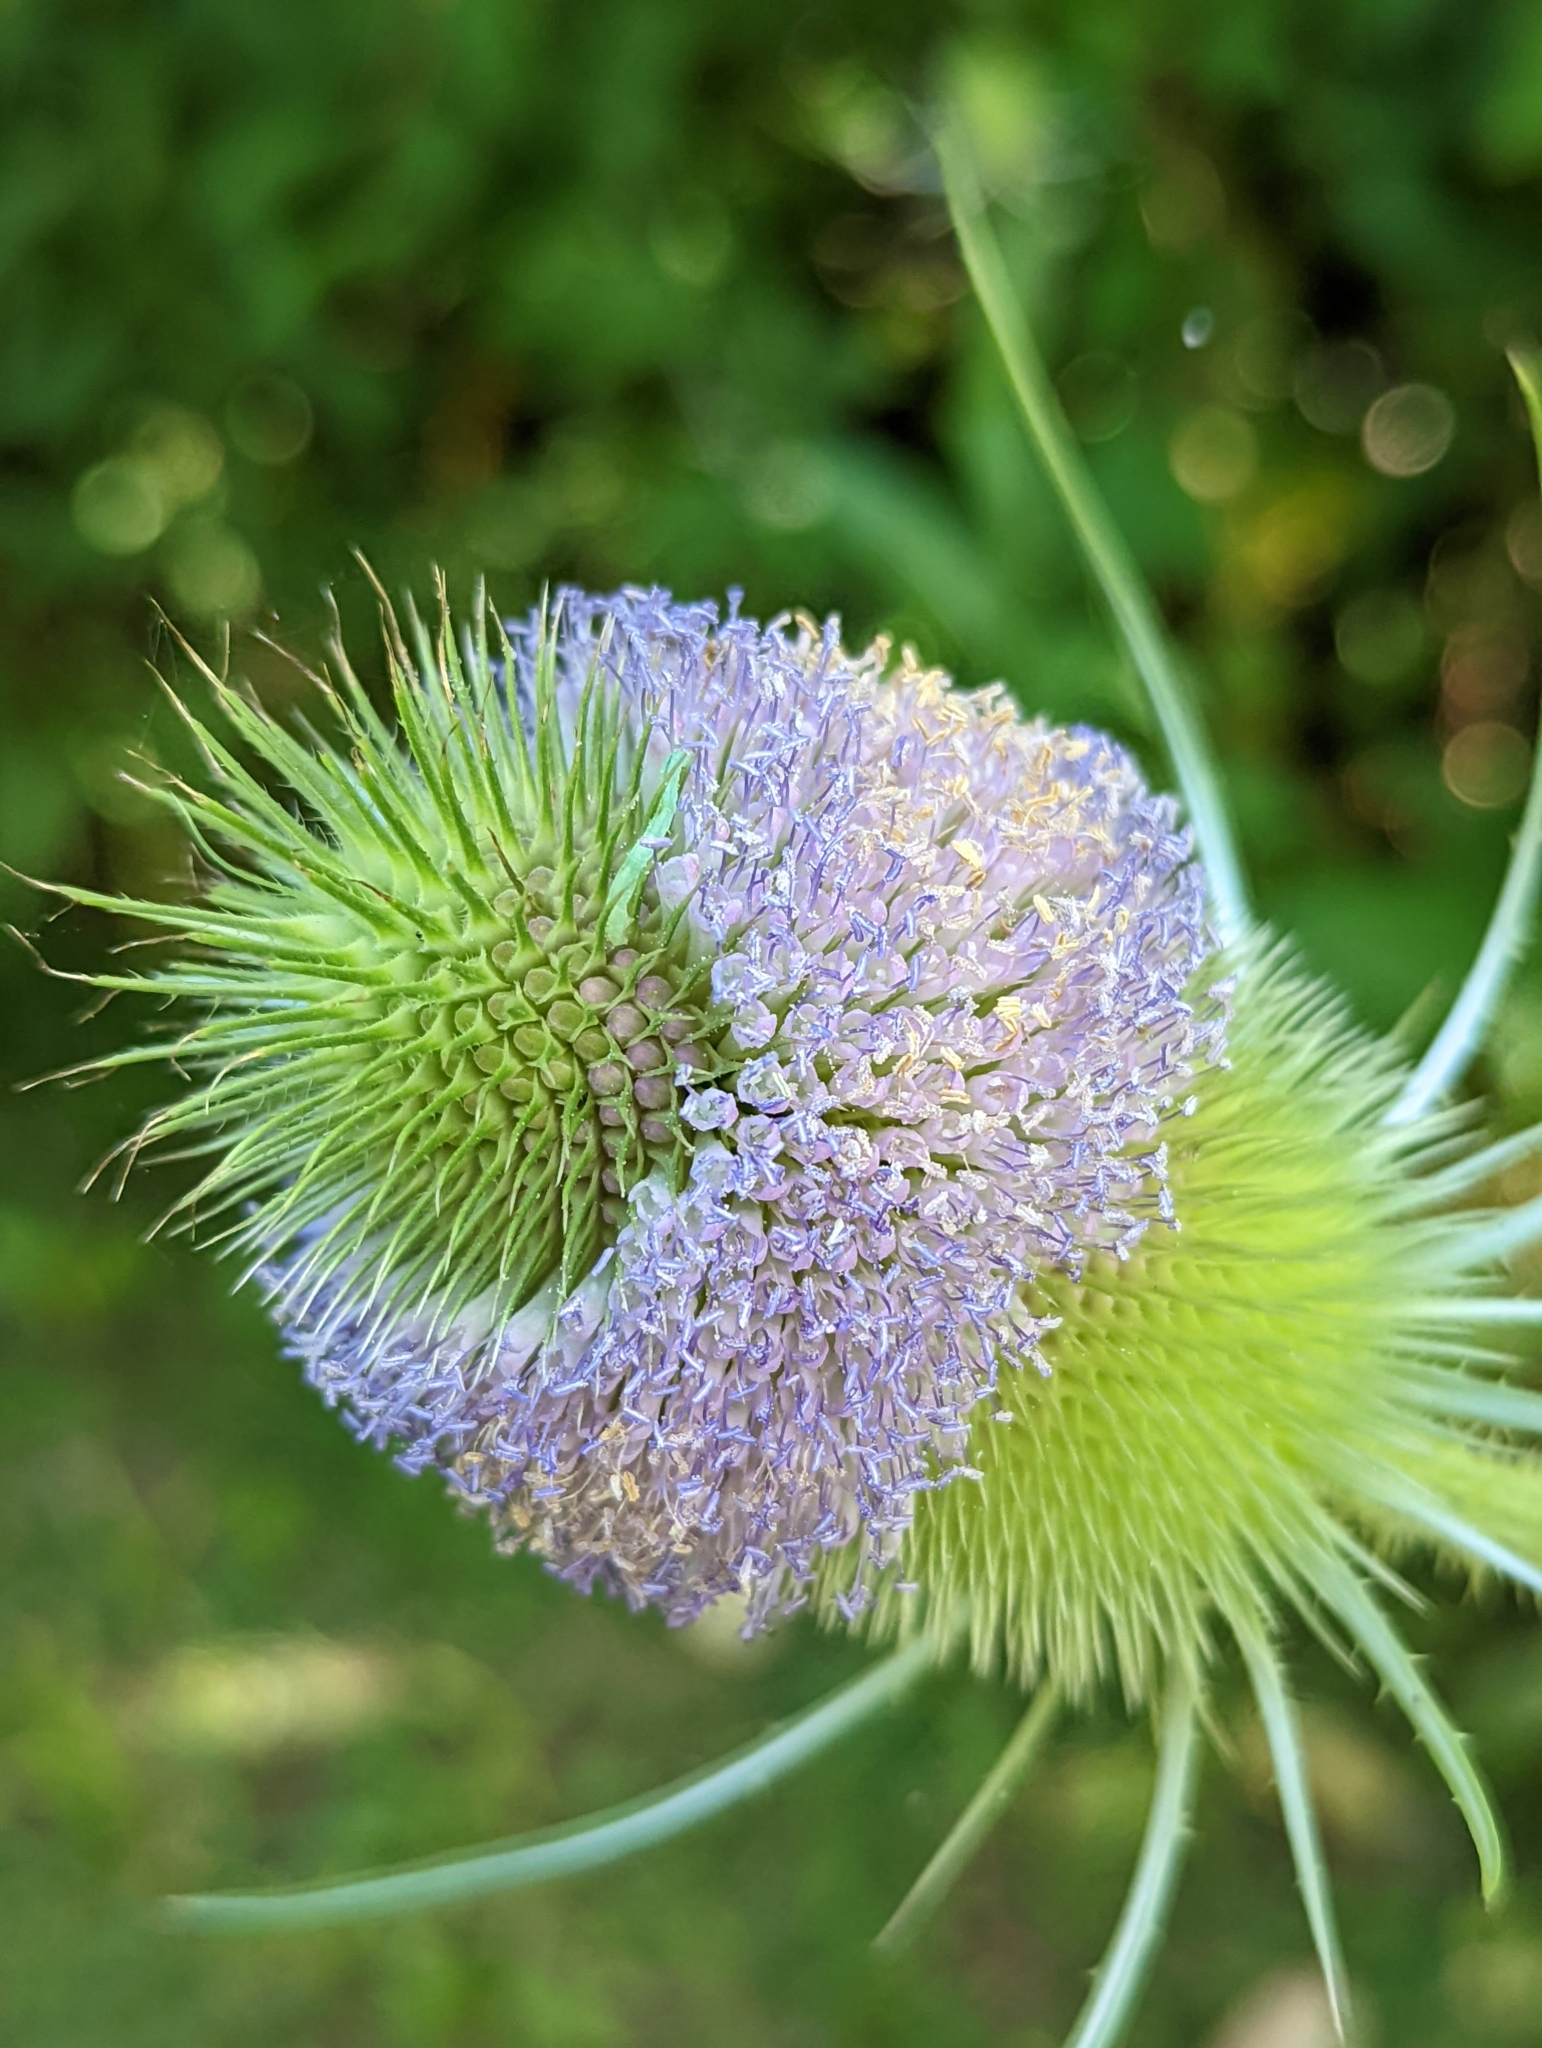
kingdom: Plantae
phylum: Tracheophyta
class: Magnoliopsida
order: Dipsacales
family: Caprifoliaceae
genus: Dipsacus
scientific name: Dipsacus fullonum
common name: Teasel
